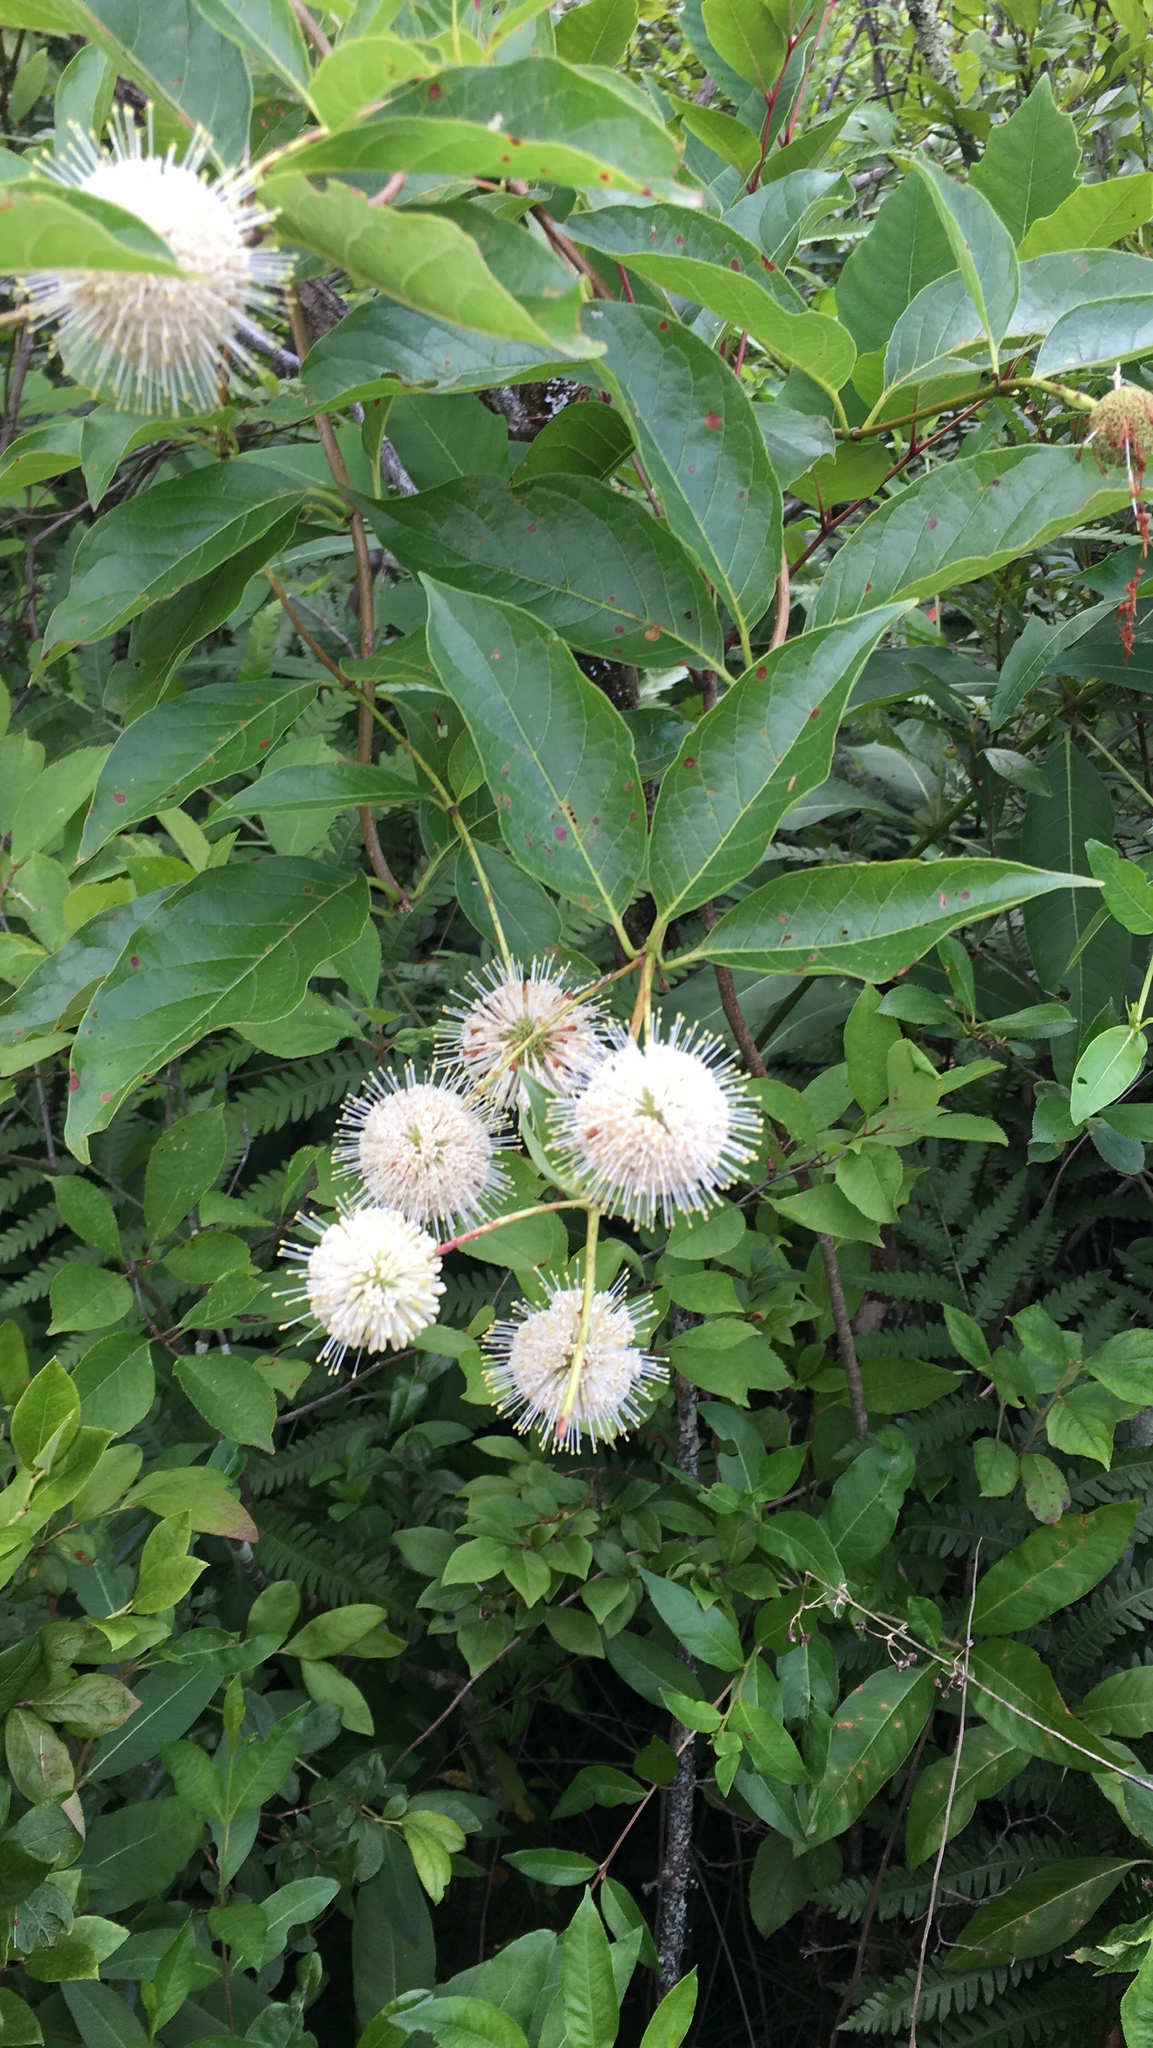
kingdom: Plantae
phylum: Tracheophyta
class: Magnoliopsida
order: Gentianales
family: Rubiaceae
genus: Cephalanthus
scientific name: Cephalanthus occidentalis
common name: Button-willow
